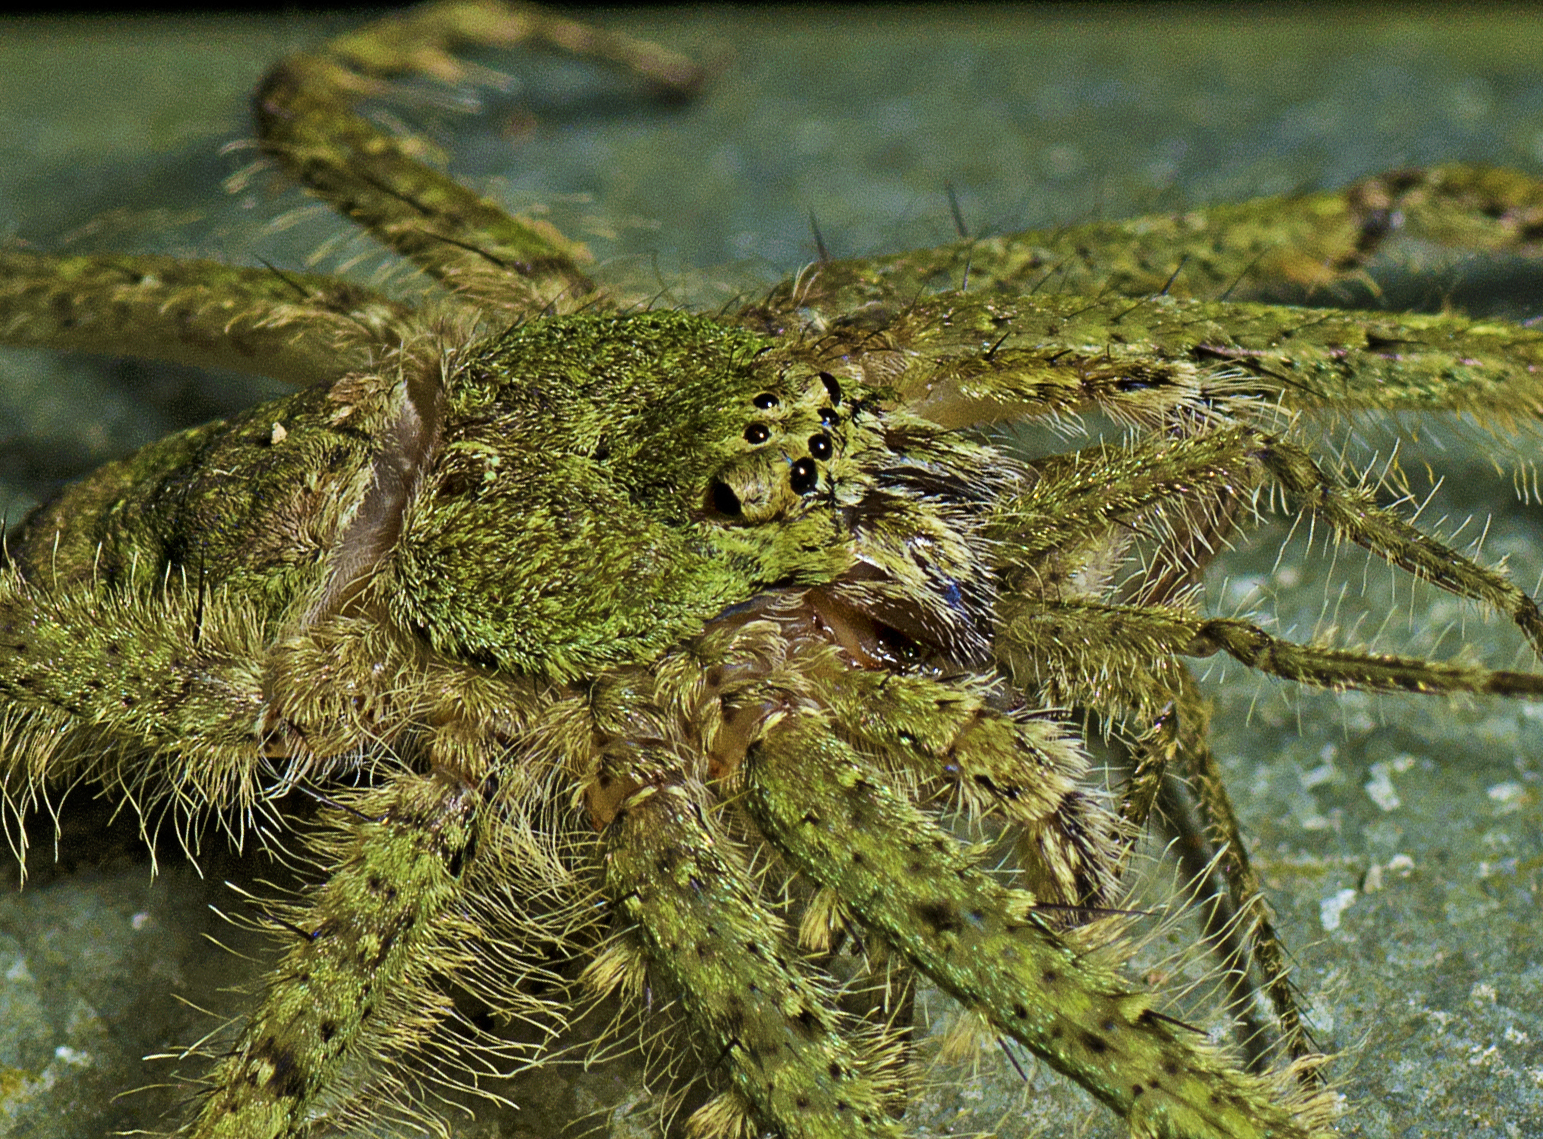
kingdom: Animalia
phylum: Arthropoda
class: Arachnida
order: Araneae
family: Sparassidae
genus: Pandercetes
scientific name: Pandercetes gracilis
